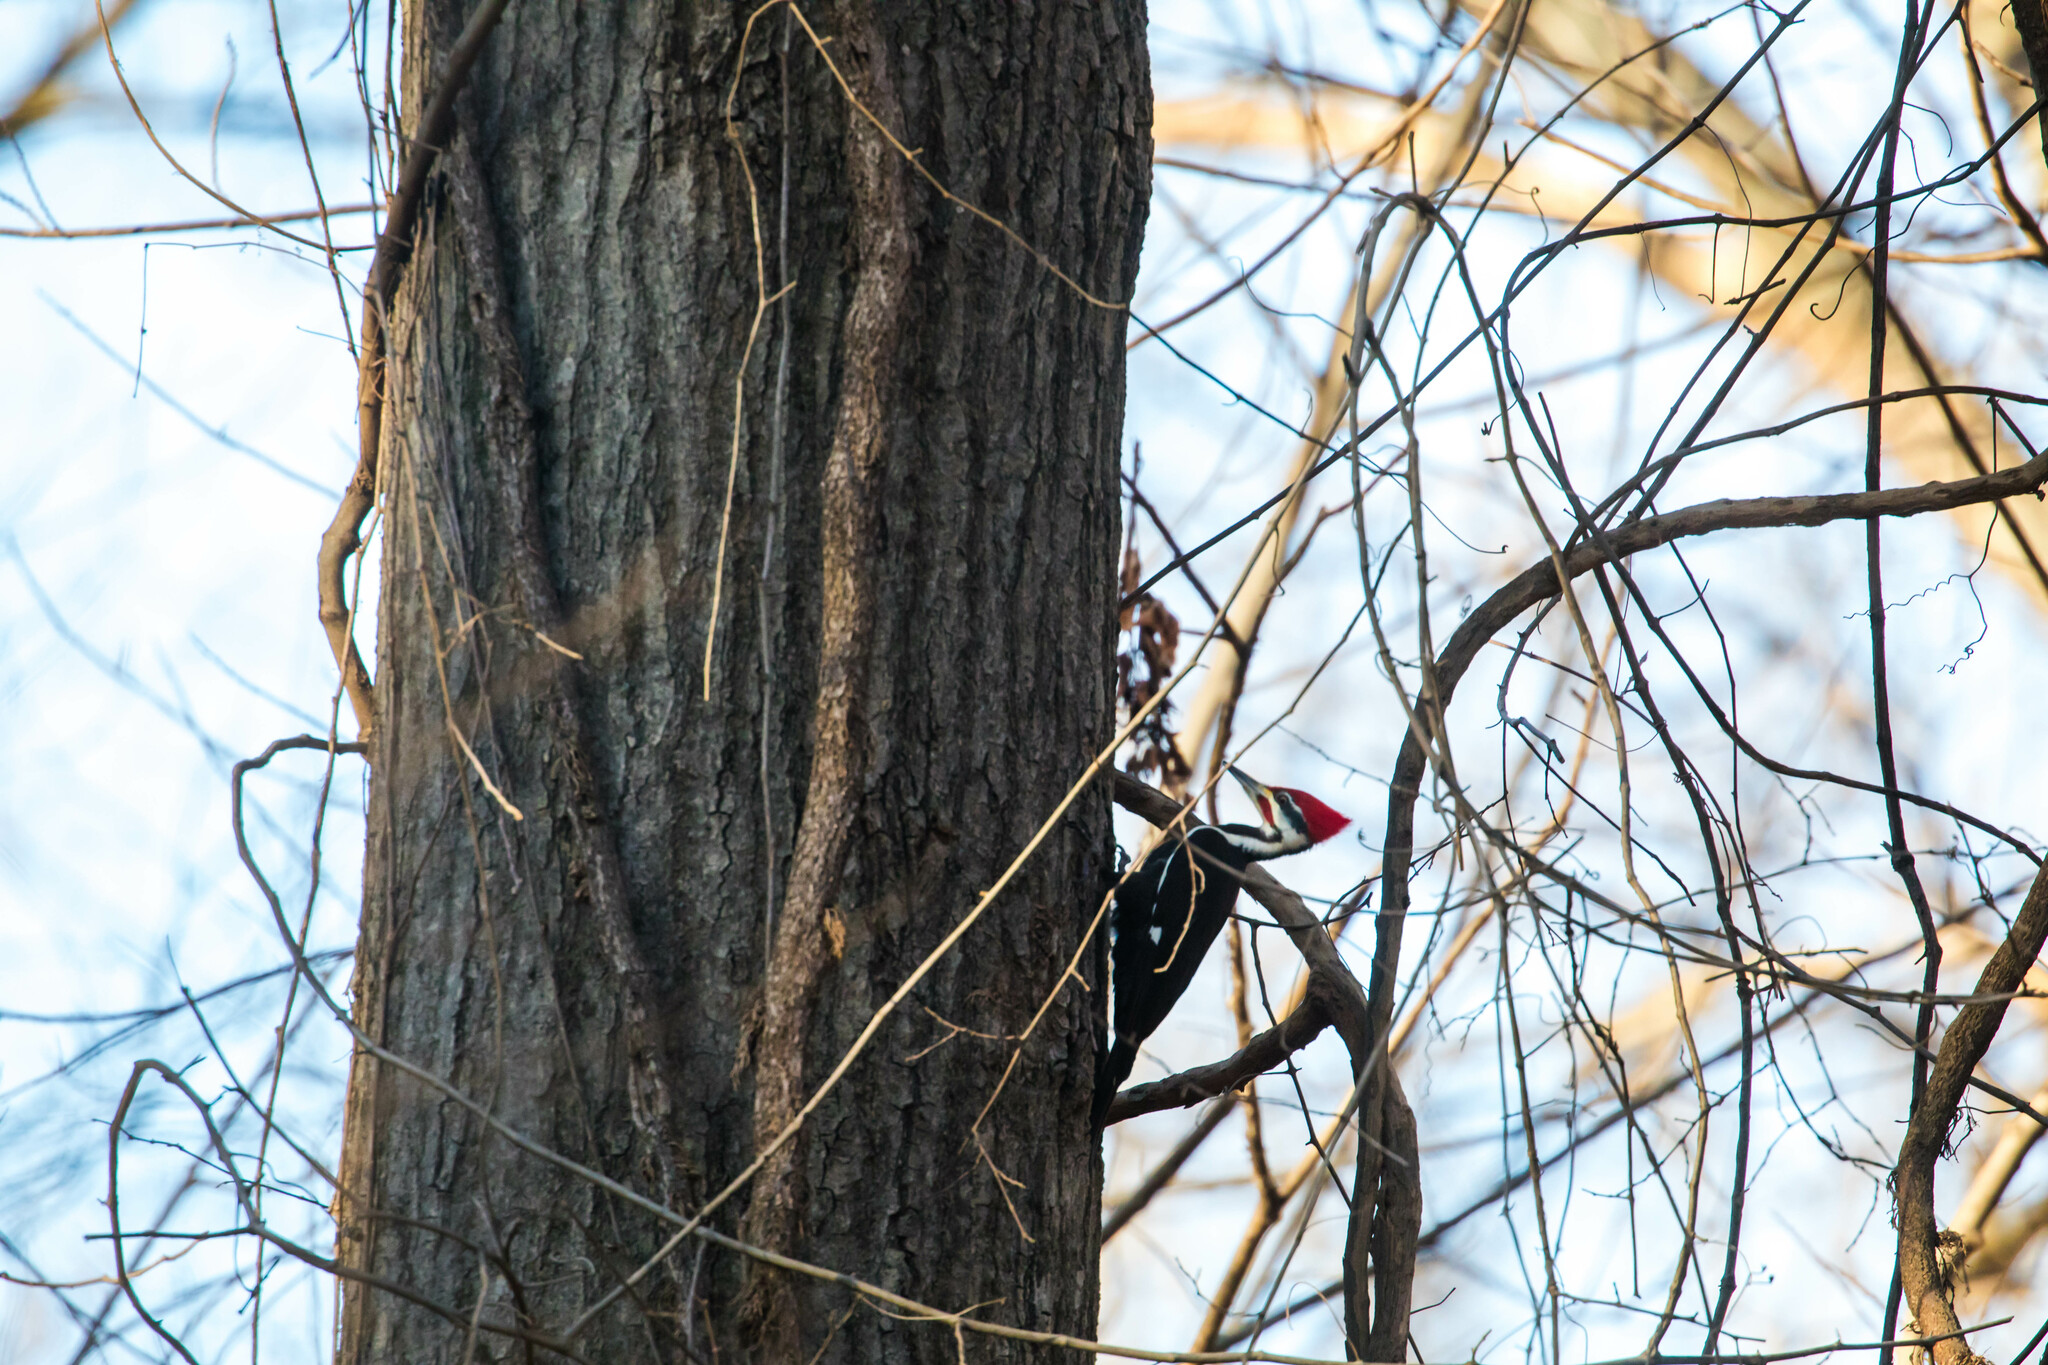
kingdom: Animalia
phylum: Chordata
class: Aves
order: Piciformes
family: Picidae
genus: Dryocopus
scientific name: Dryocopus pileatus
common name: Pileated woodpecker
